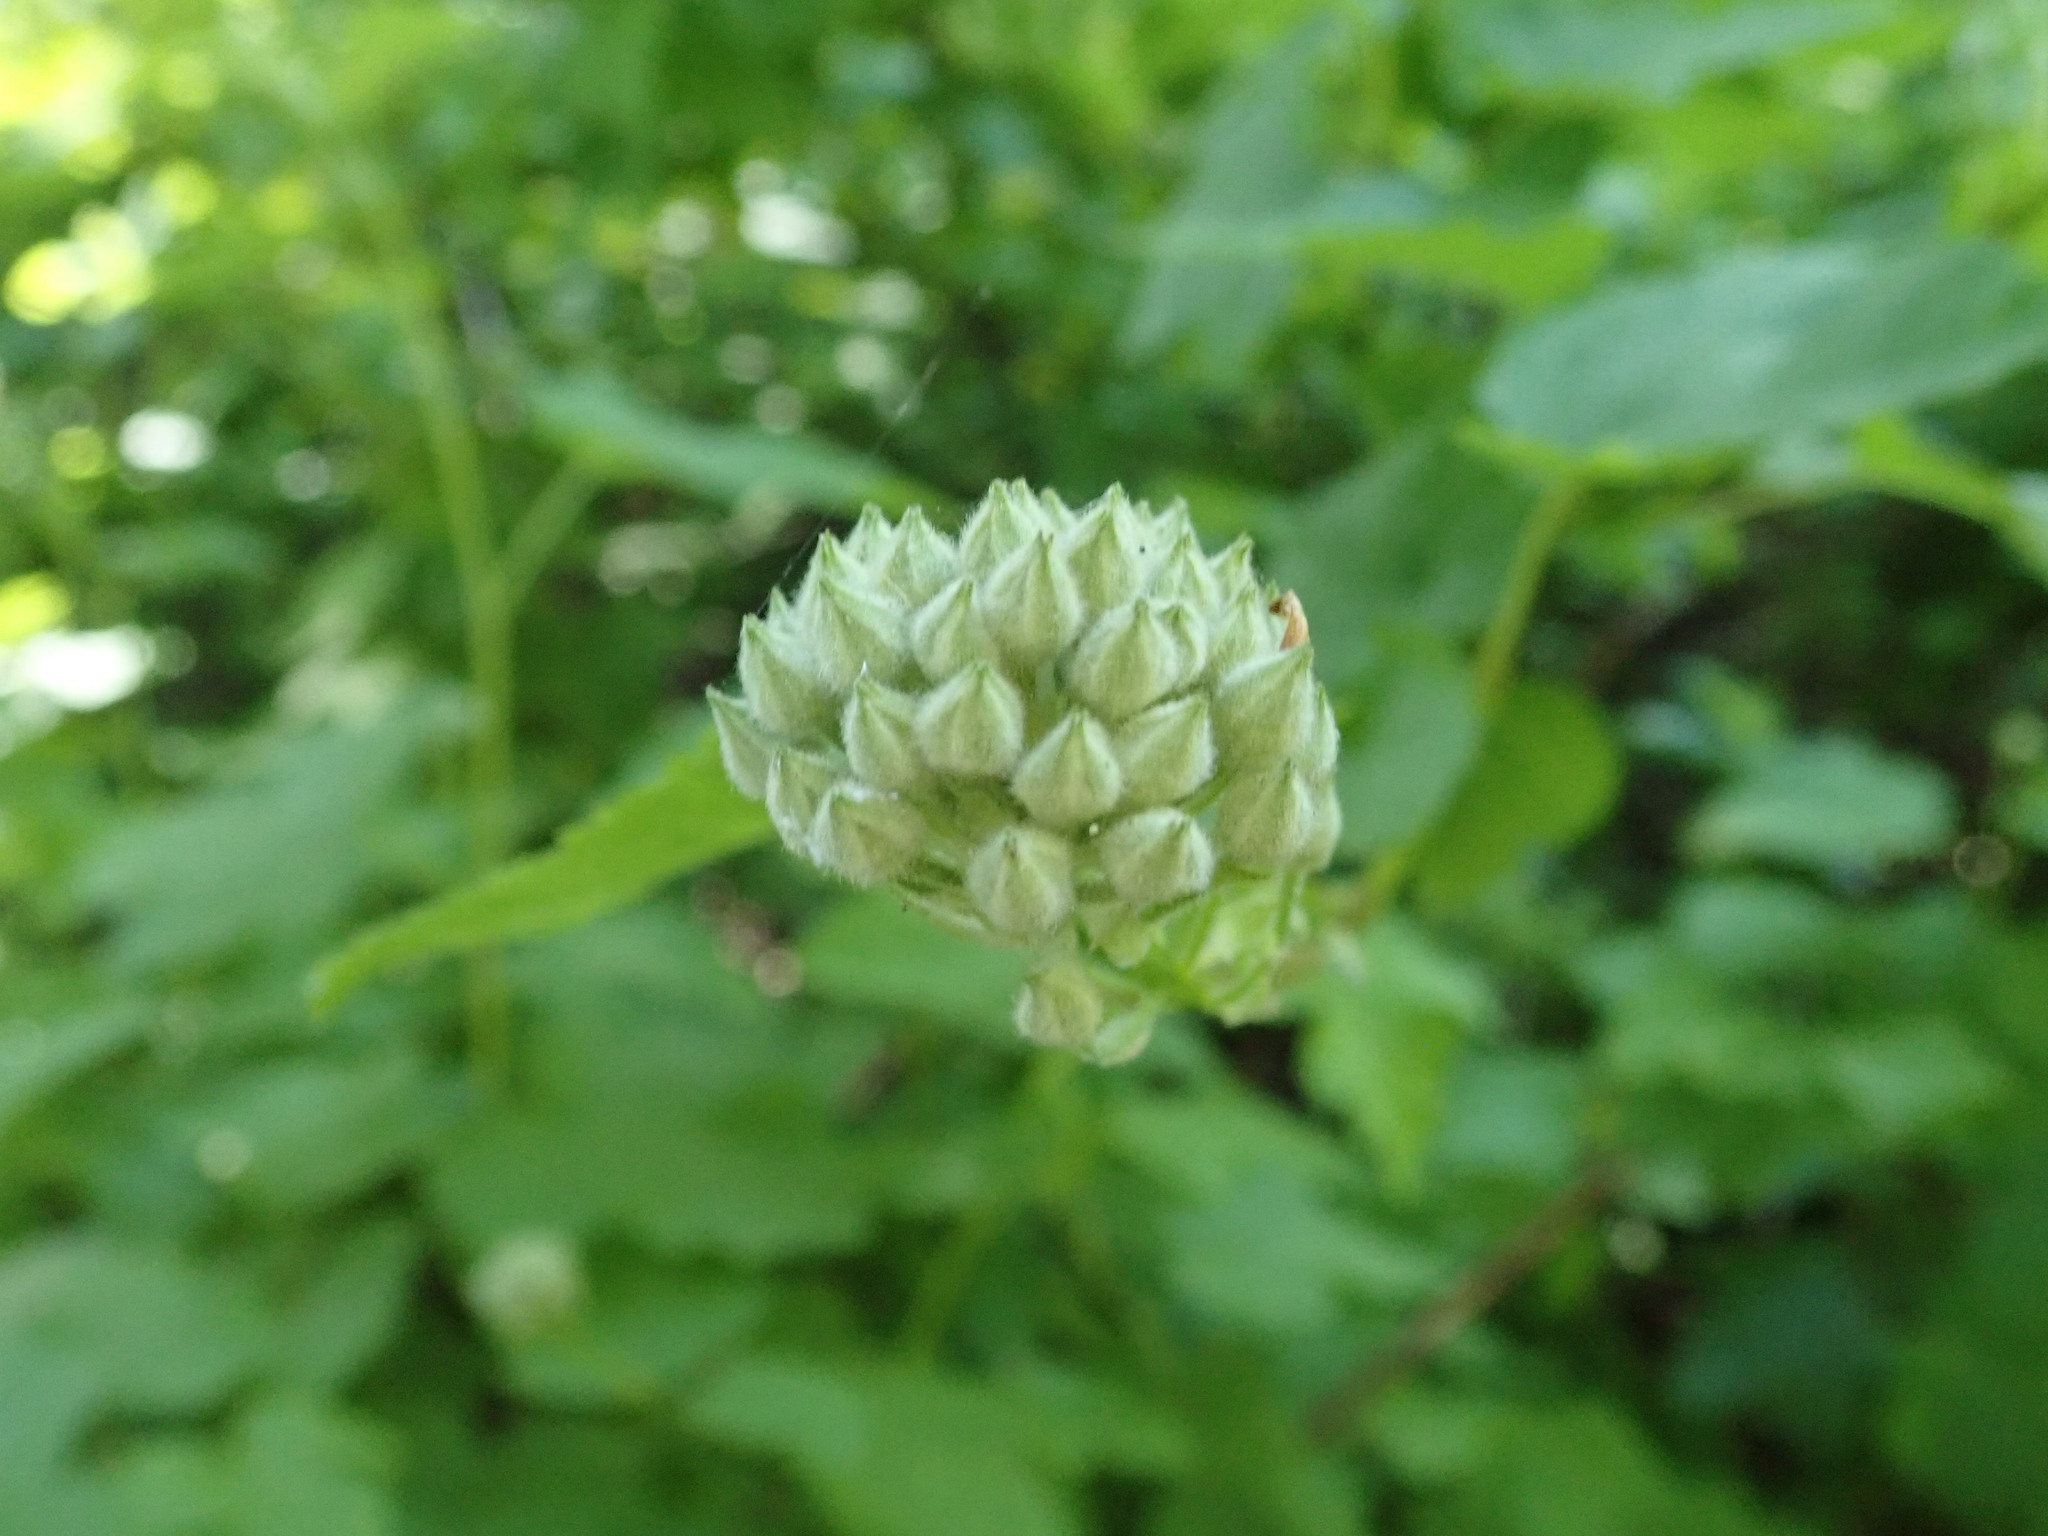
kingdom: Plantae
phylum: Tracheophyta
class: Magnoliopsida
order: Rosales
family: Rosaceae
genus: Physocarpus
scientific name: Physocarpus capitatus
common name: Pacific ninebark
